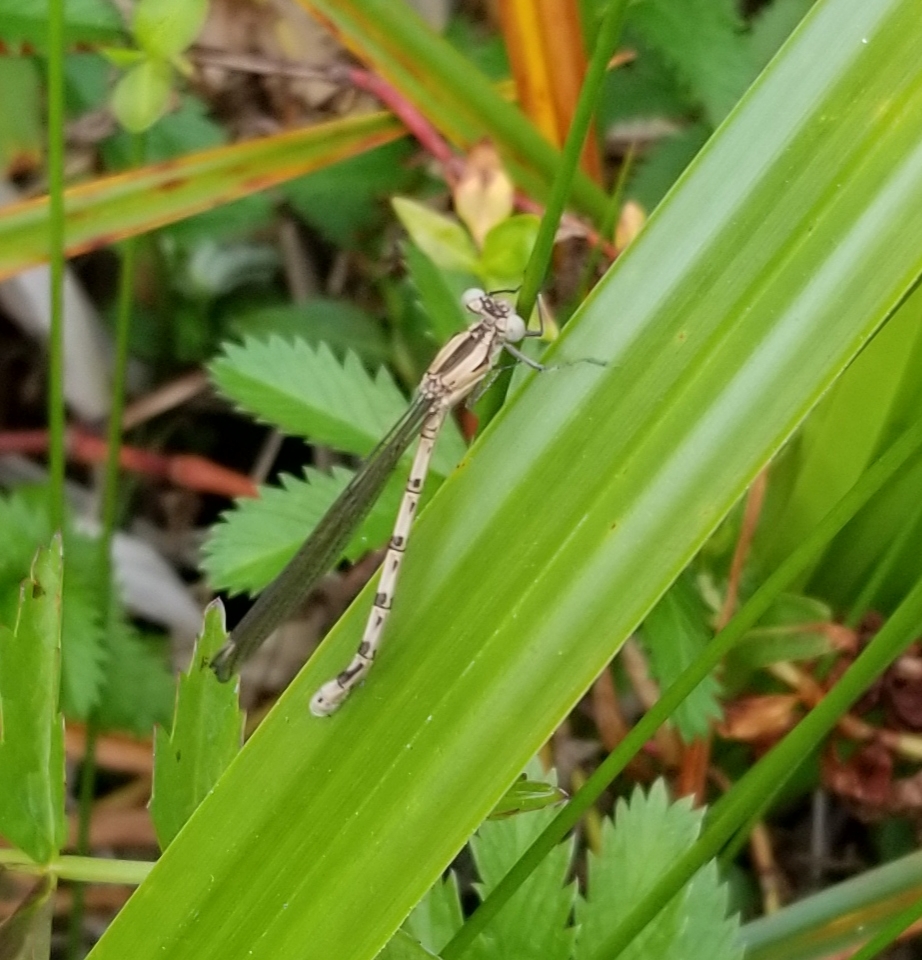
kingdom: Animalia
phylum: Arthropoda
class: Insecta
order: Odonata
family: Coenagrionidae
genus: Argia
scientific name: Argia vivida
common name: Vivid dancer
